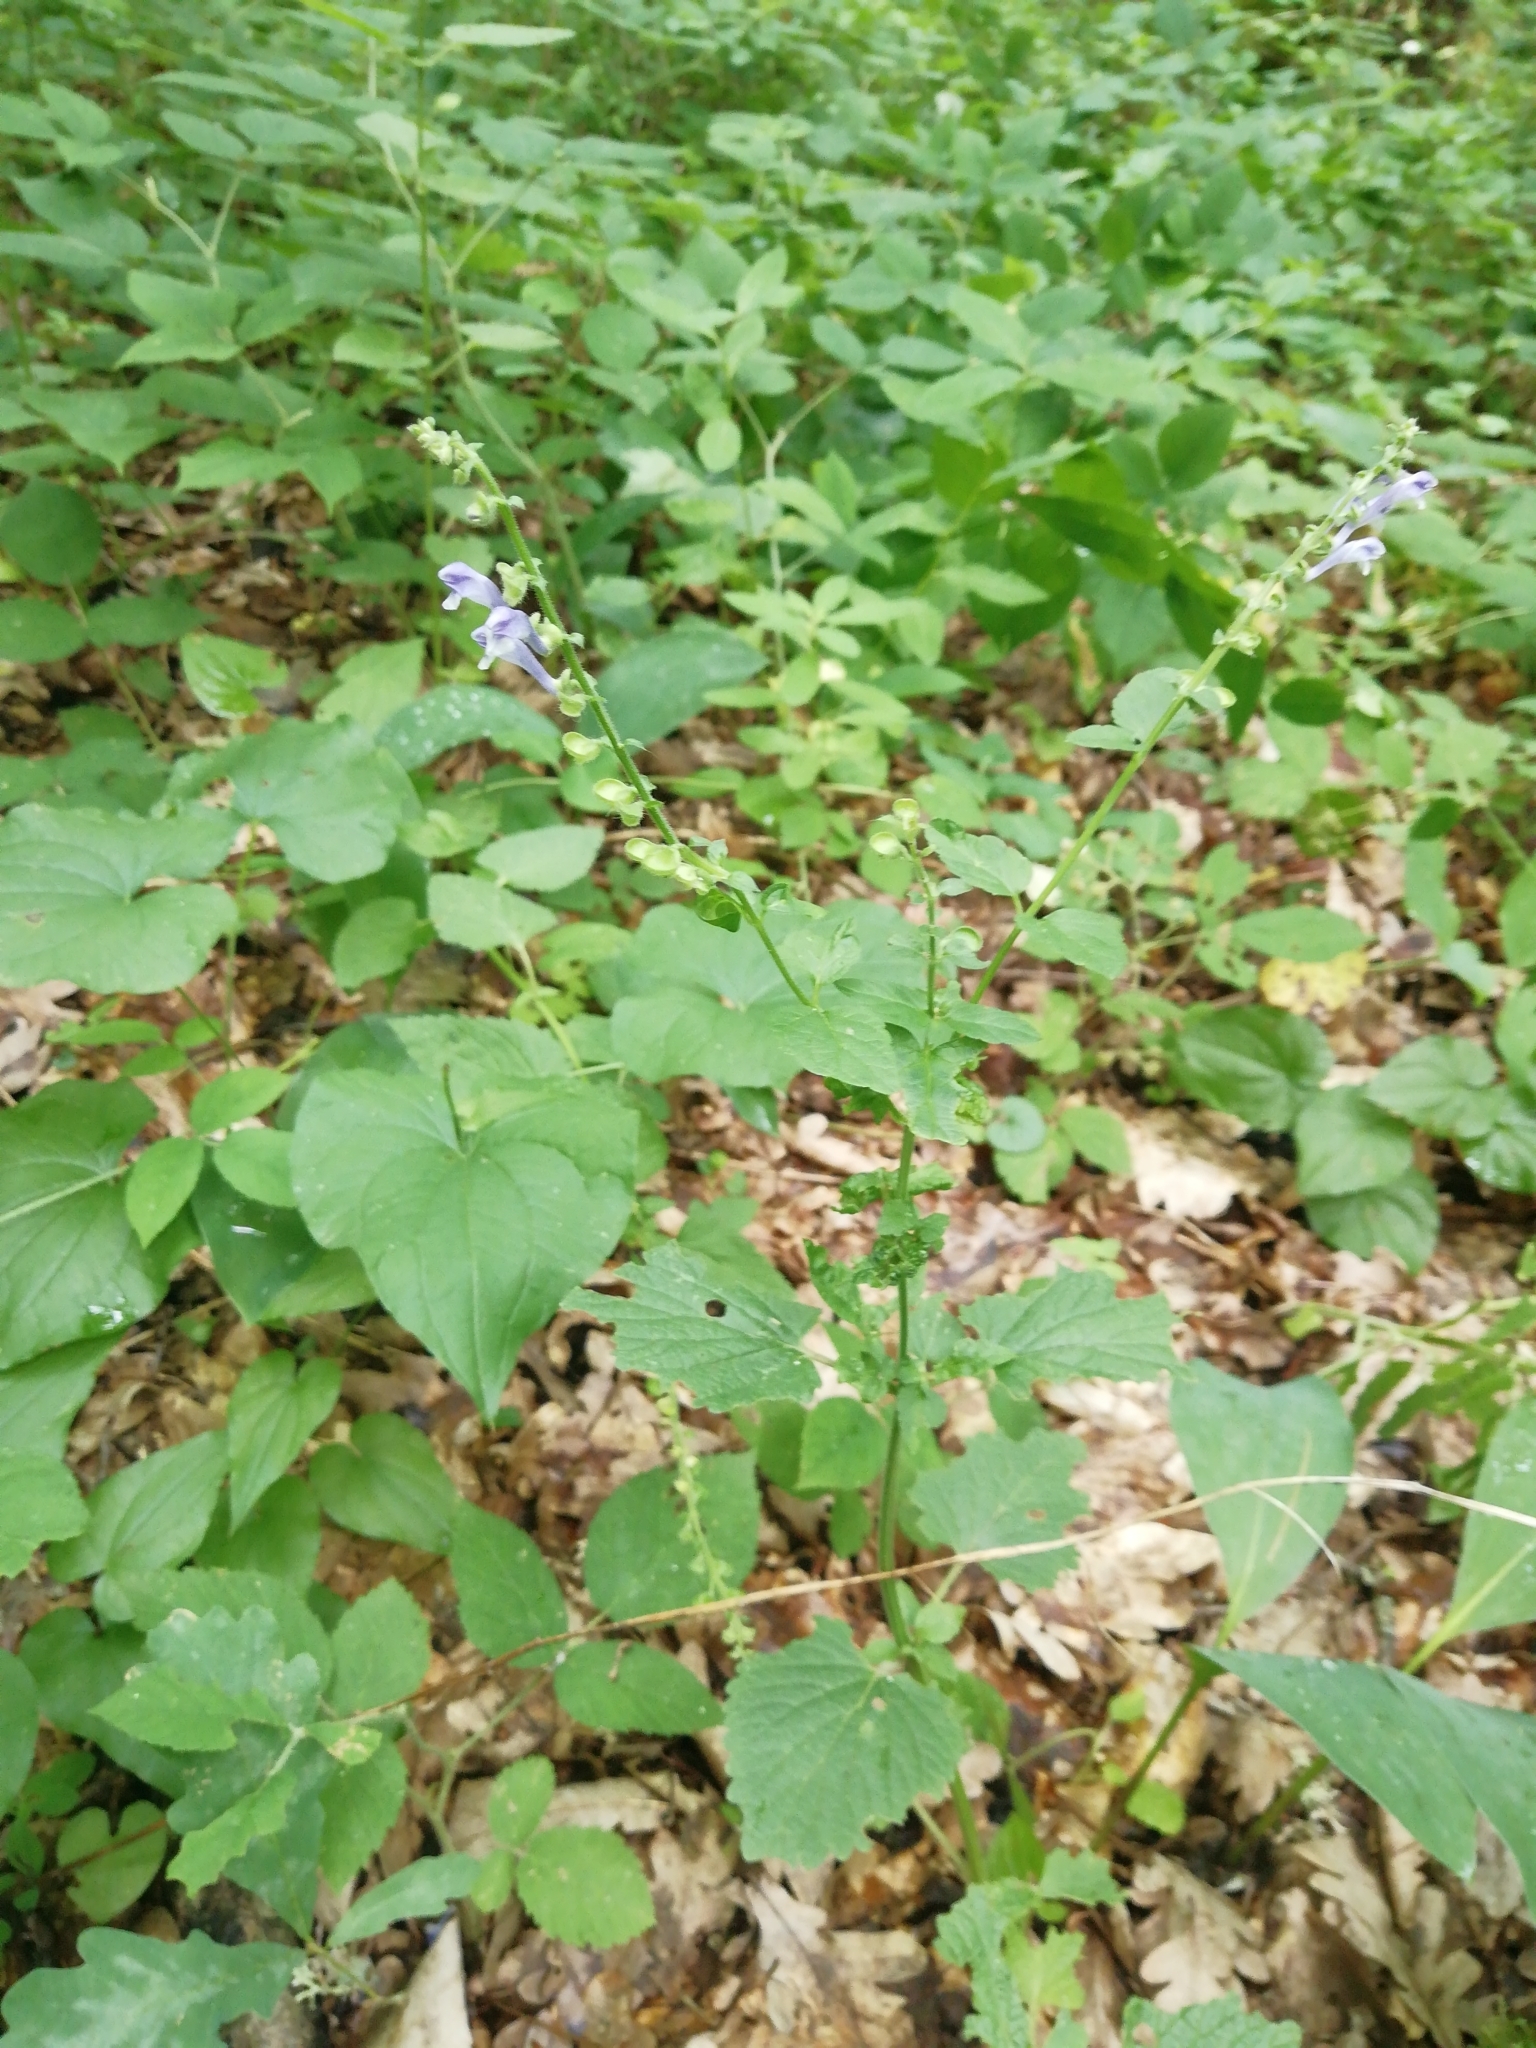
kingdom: Plantae
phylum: Tracheophyta
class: Magnoliopsida
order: Lamiales
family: Lamiaceae
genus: Scutellaria
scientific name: Scutellaria altissima
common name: Somerset skullcap
